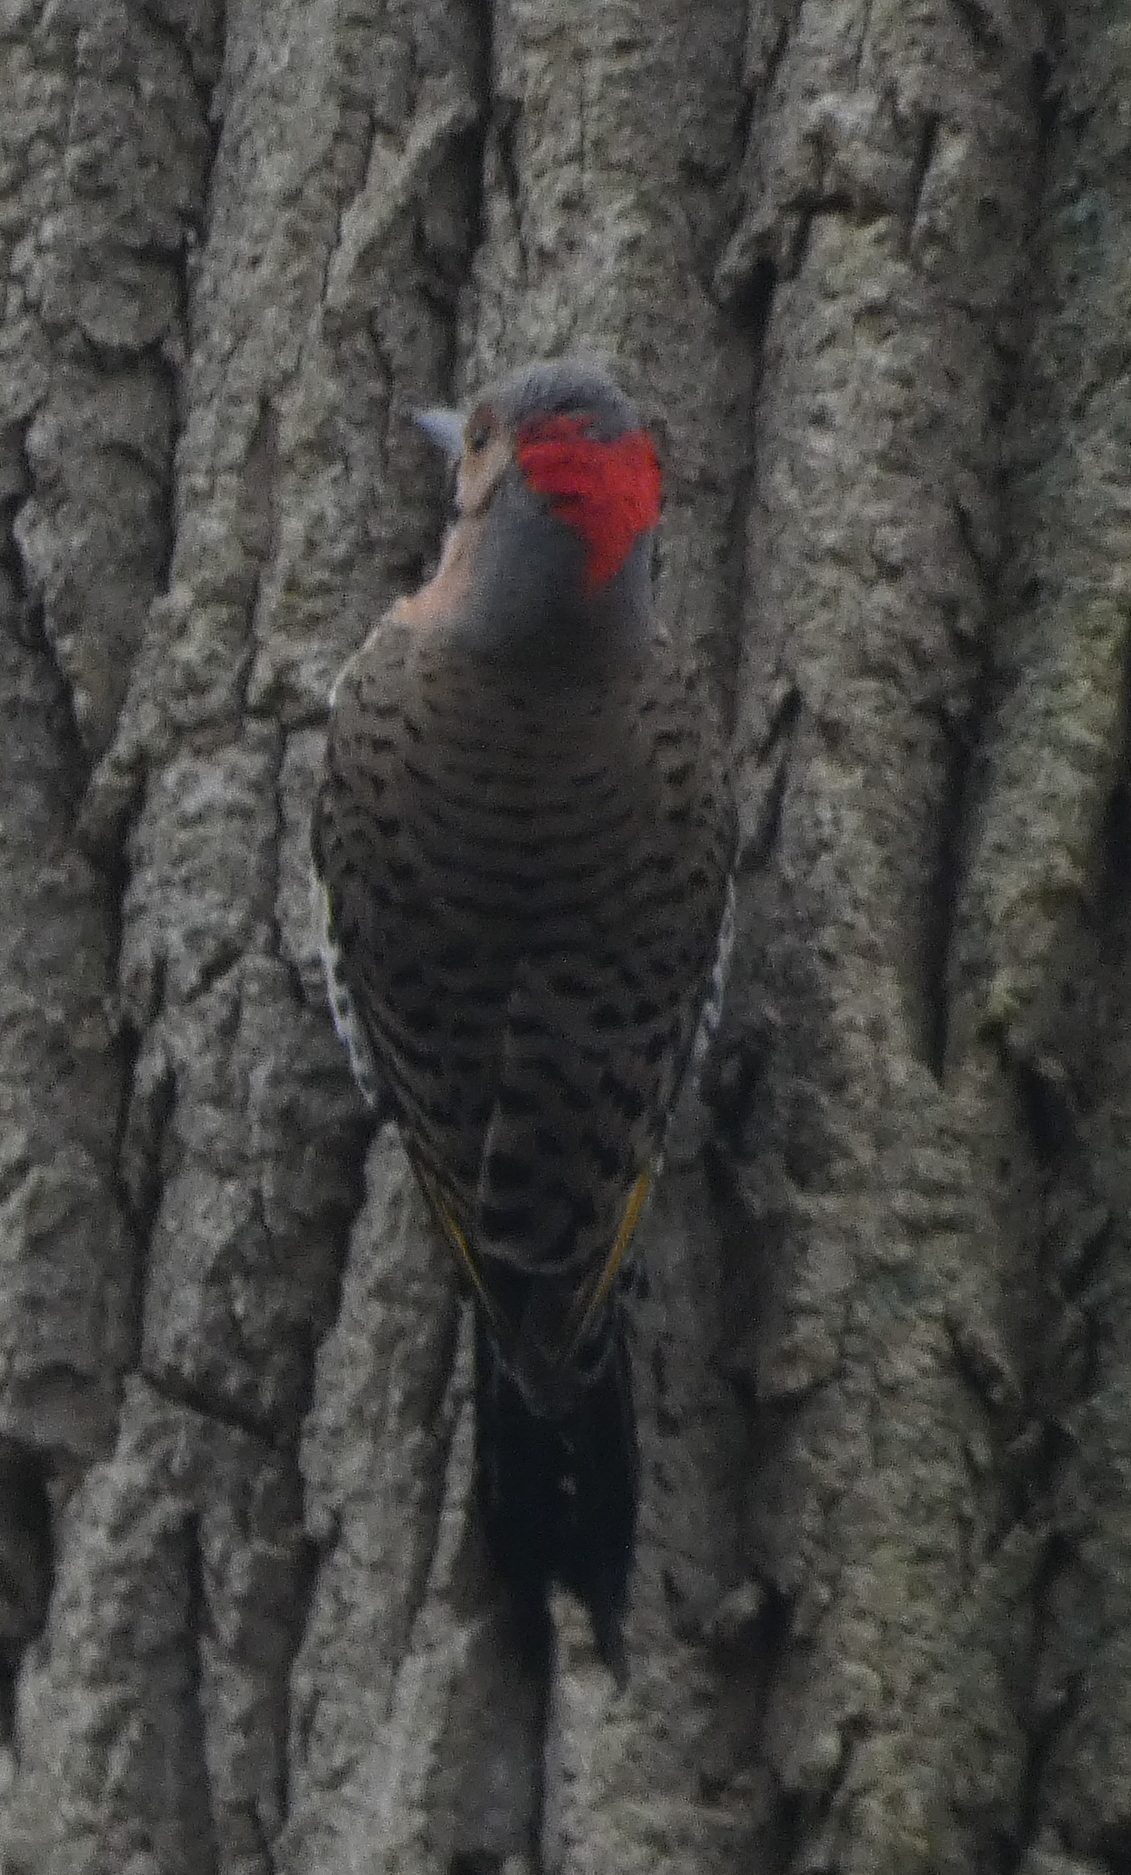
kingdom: Animalia
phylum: Chordata
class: Aves
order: Piciformes
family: Picidae
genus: Colaptes
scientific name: Colaptes auratus
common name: Northern flicker
